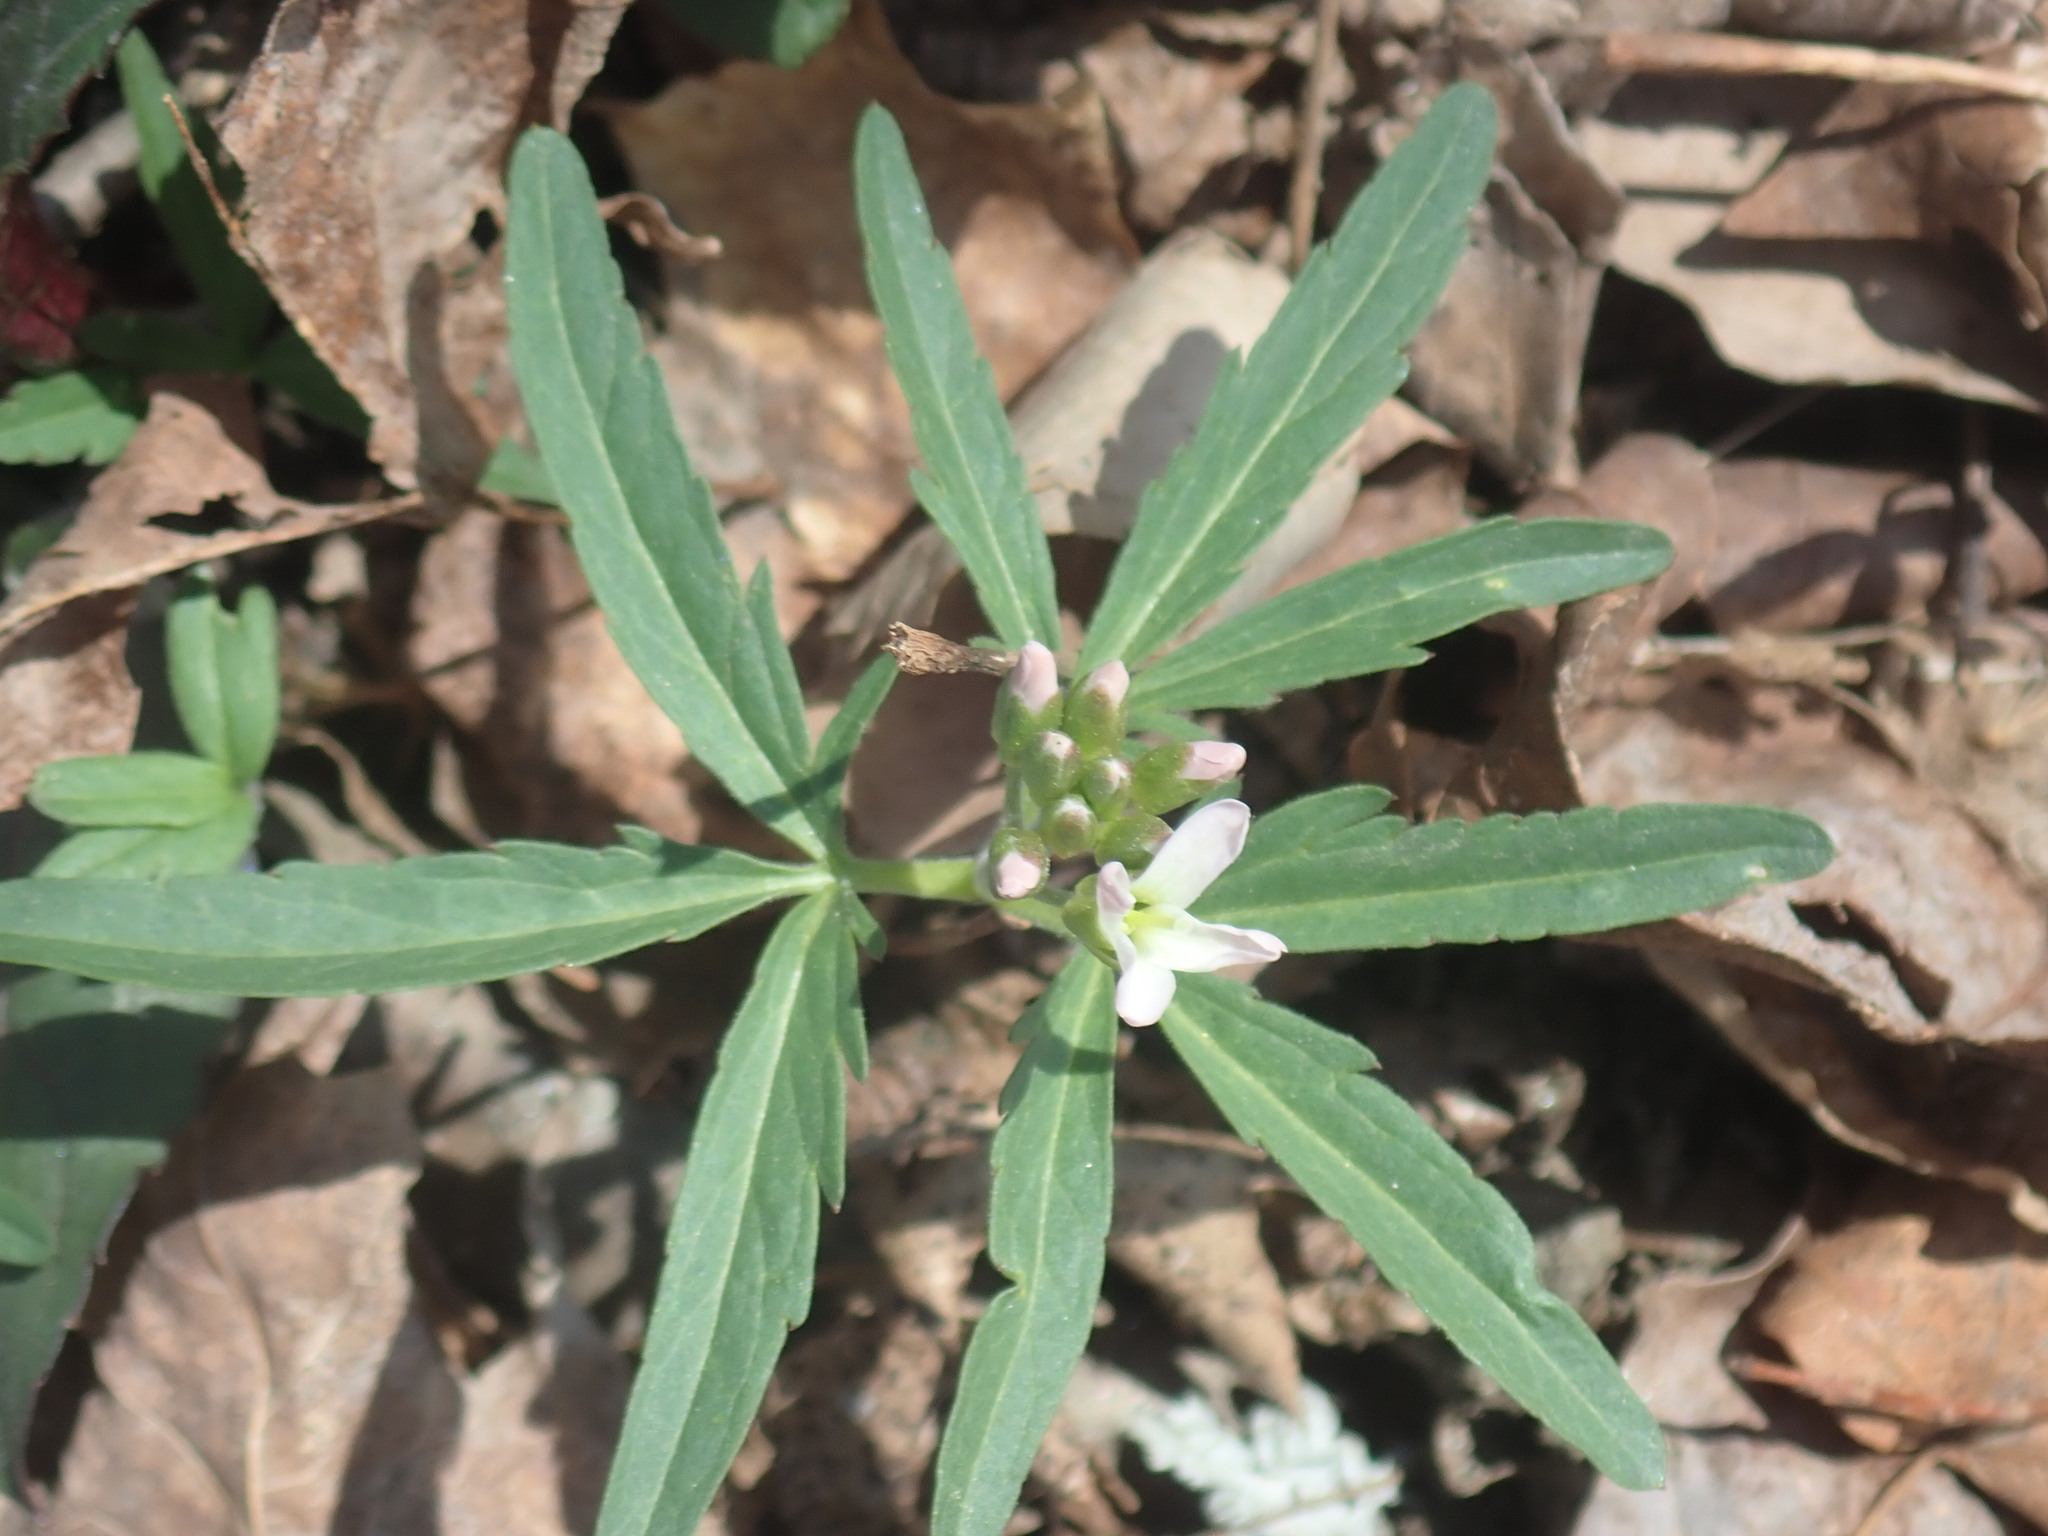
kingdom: Plantae
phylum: Tracheophyta
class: Magnoliopsida
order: Brassicales
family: Brassicaceae
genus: Cardamine
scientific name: Cardamine concatenata
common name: Cut-leaf toothcup
